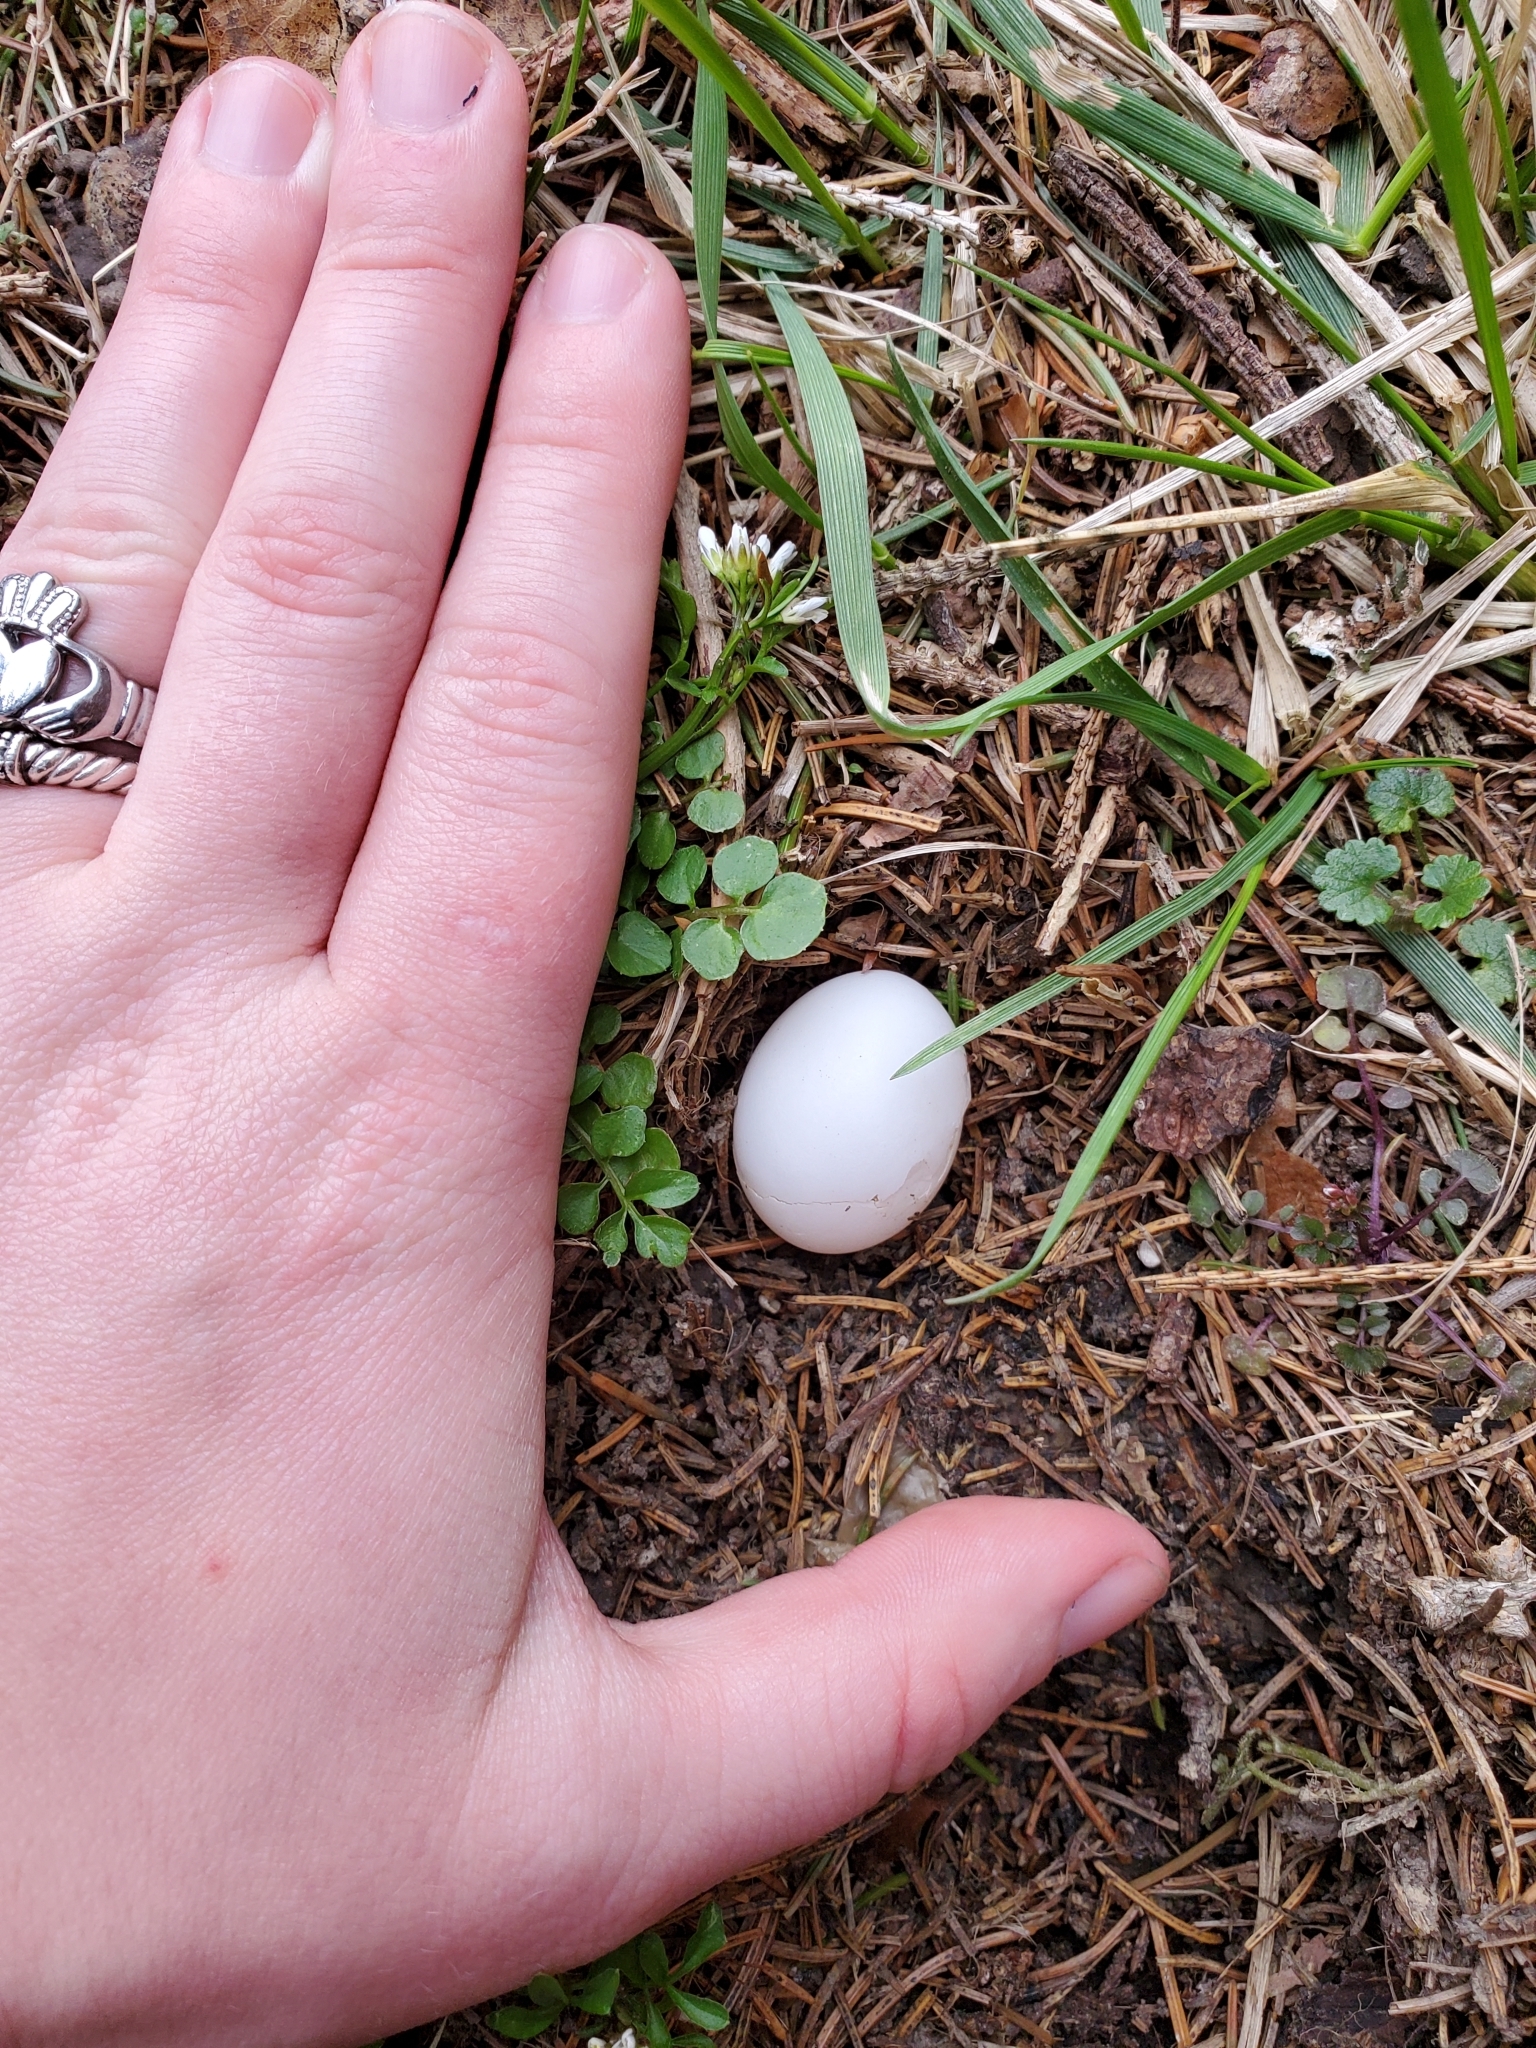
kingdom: Animalia
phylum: Chordata
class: Aves
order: Columbiformes
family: Columbidae
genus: Zenaida
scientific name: Zenaida macroura
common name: Mourning dove
